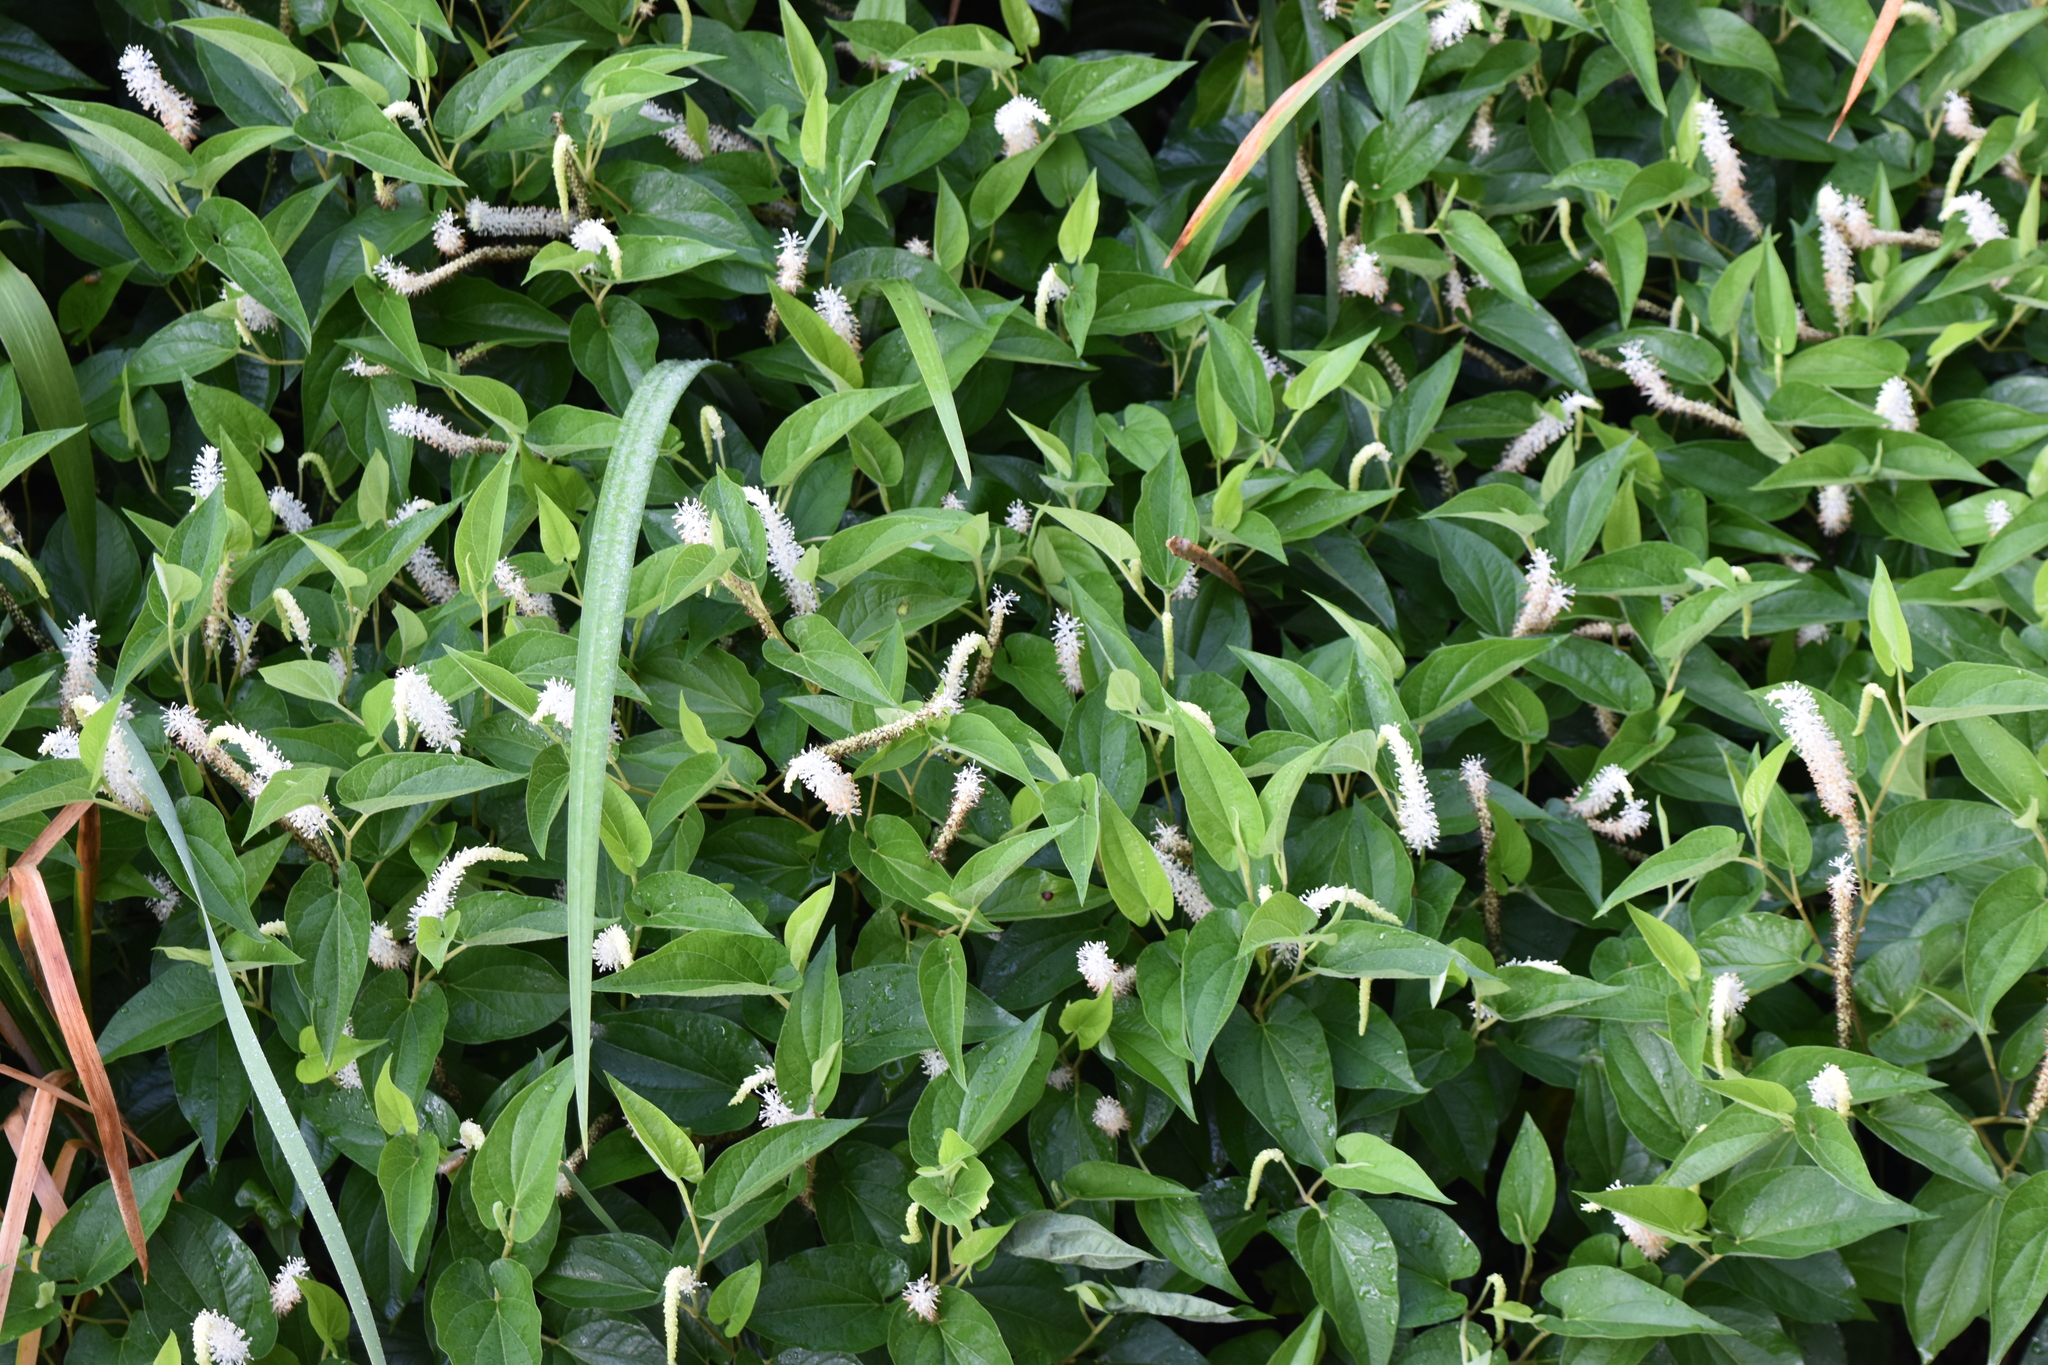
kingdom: Plantae
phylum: Tracheophyta
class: Magnoliopsida
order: Piperales
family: Saururaceae
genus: Saururus
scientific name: Saururus cernuus
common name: Lizard's-tail
